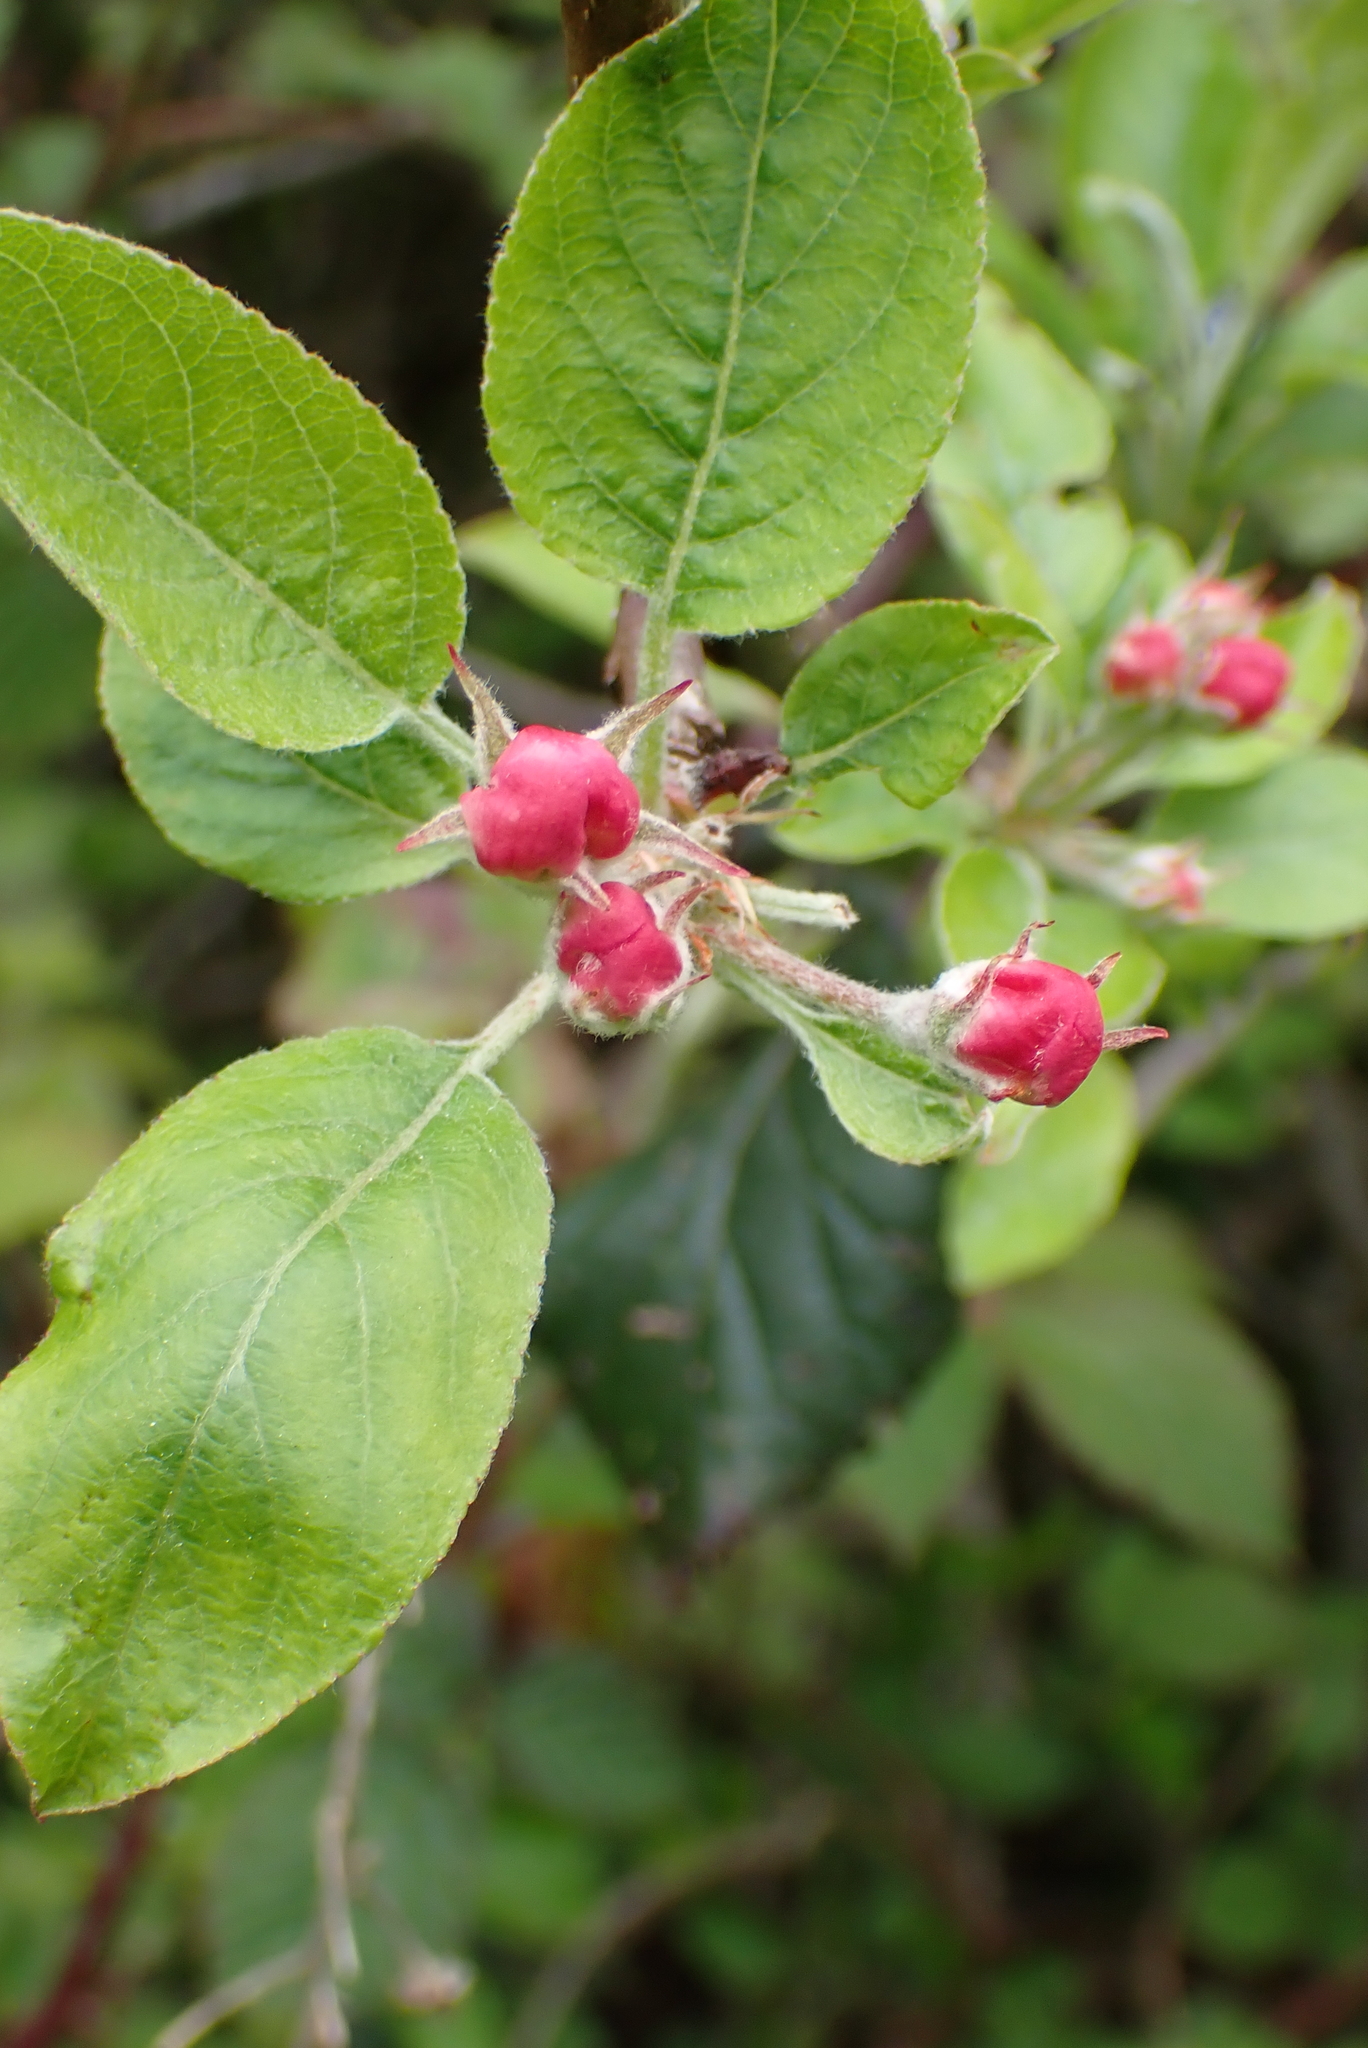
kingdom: Plantae
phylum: Tracheophyta
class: Magnoliopsida
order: Rosales
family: Rosaceae
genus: Malus
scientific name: Malus domestica
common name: Apple
